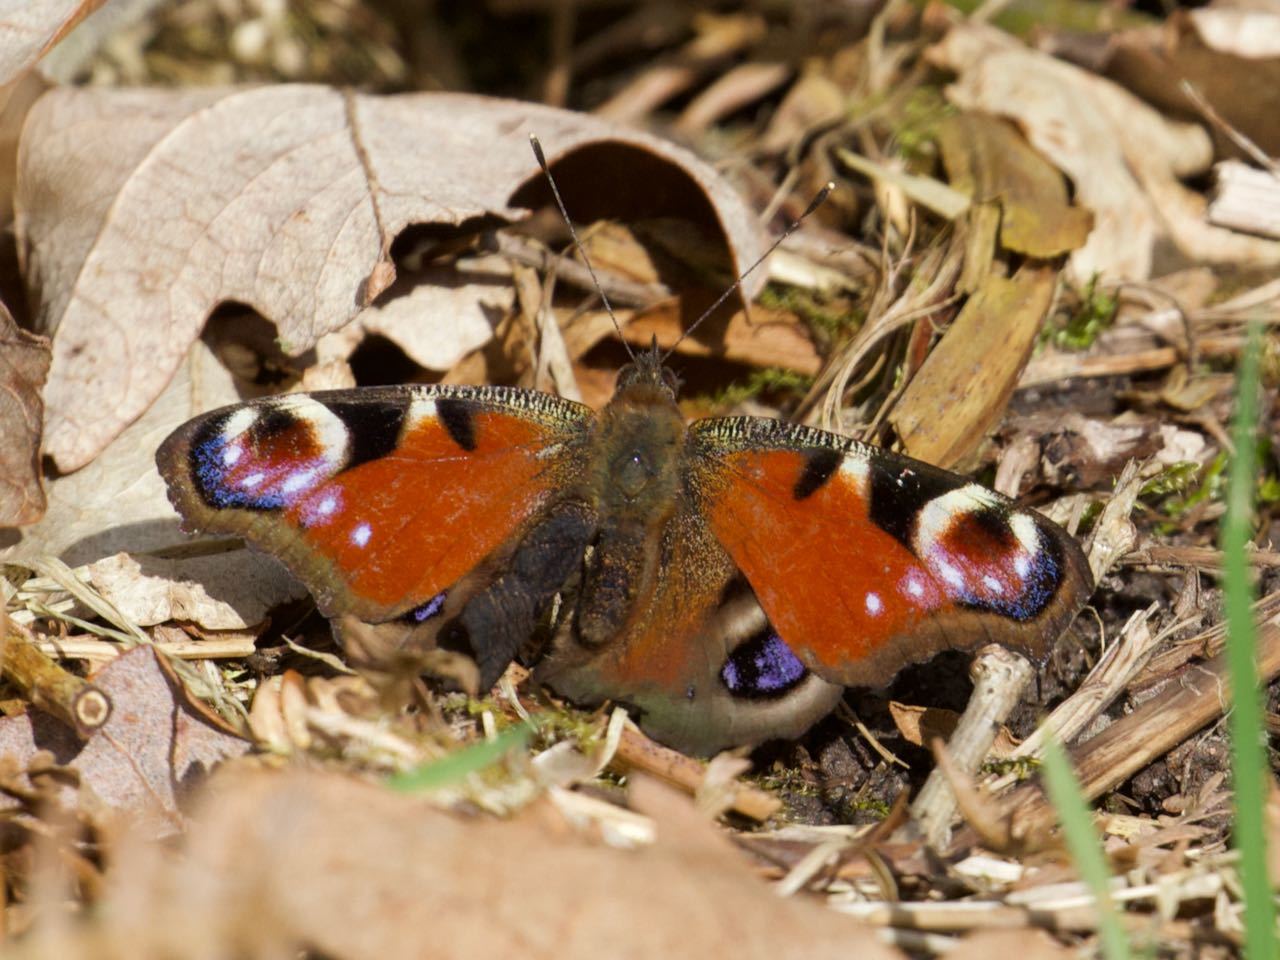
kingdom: Animalia
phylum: Arthropoda
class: Insecta
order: Lepidoptera
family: Nymphalidae
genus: Aglais
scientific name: Aglais io
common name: Peacock
